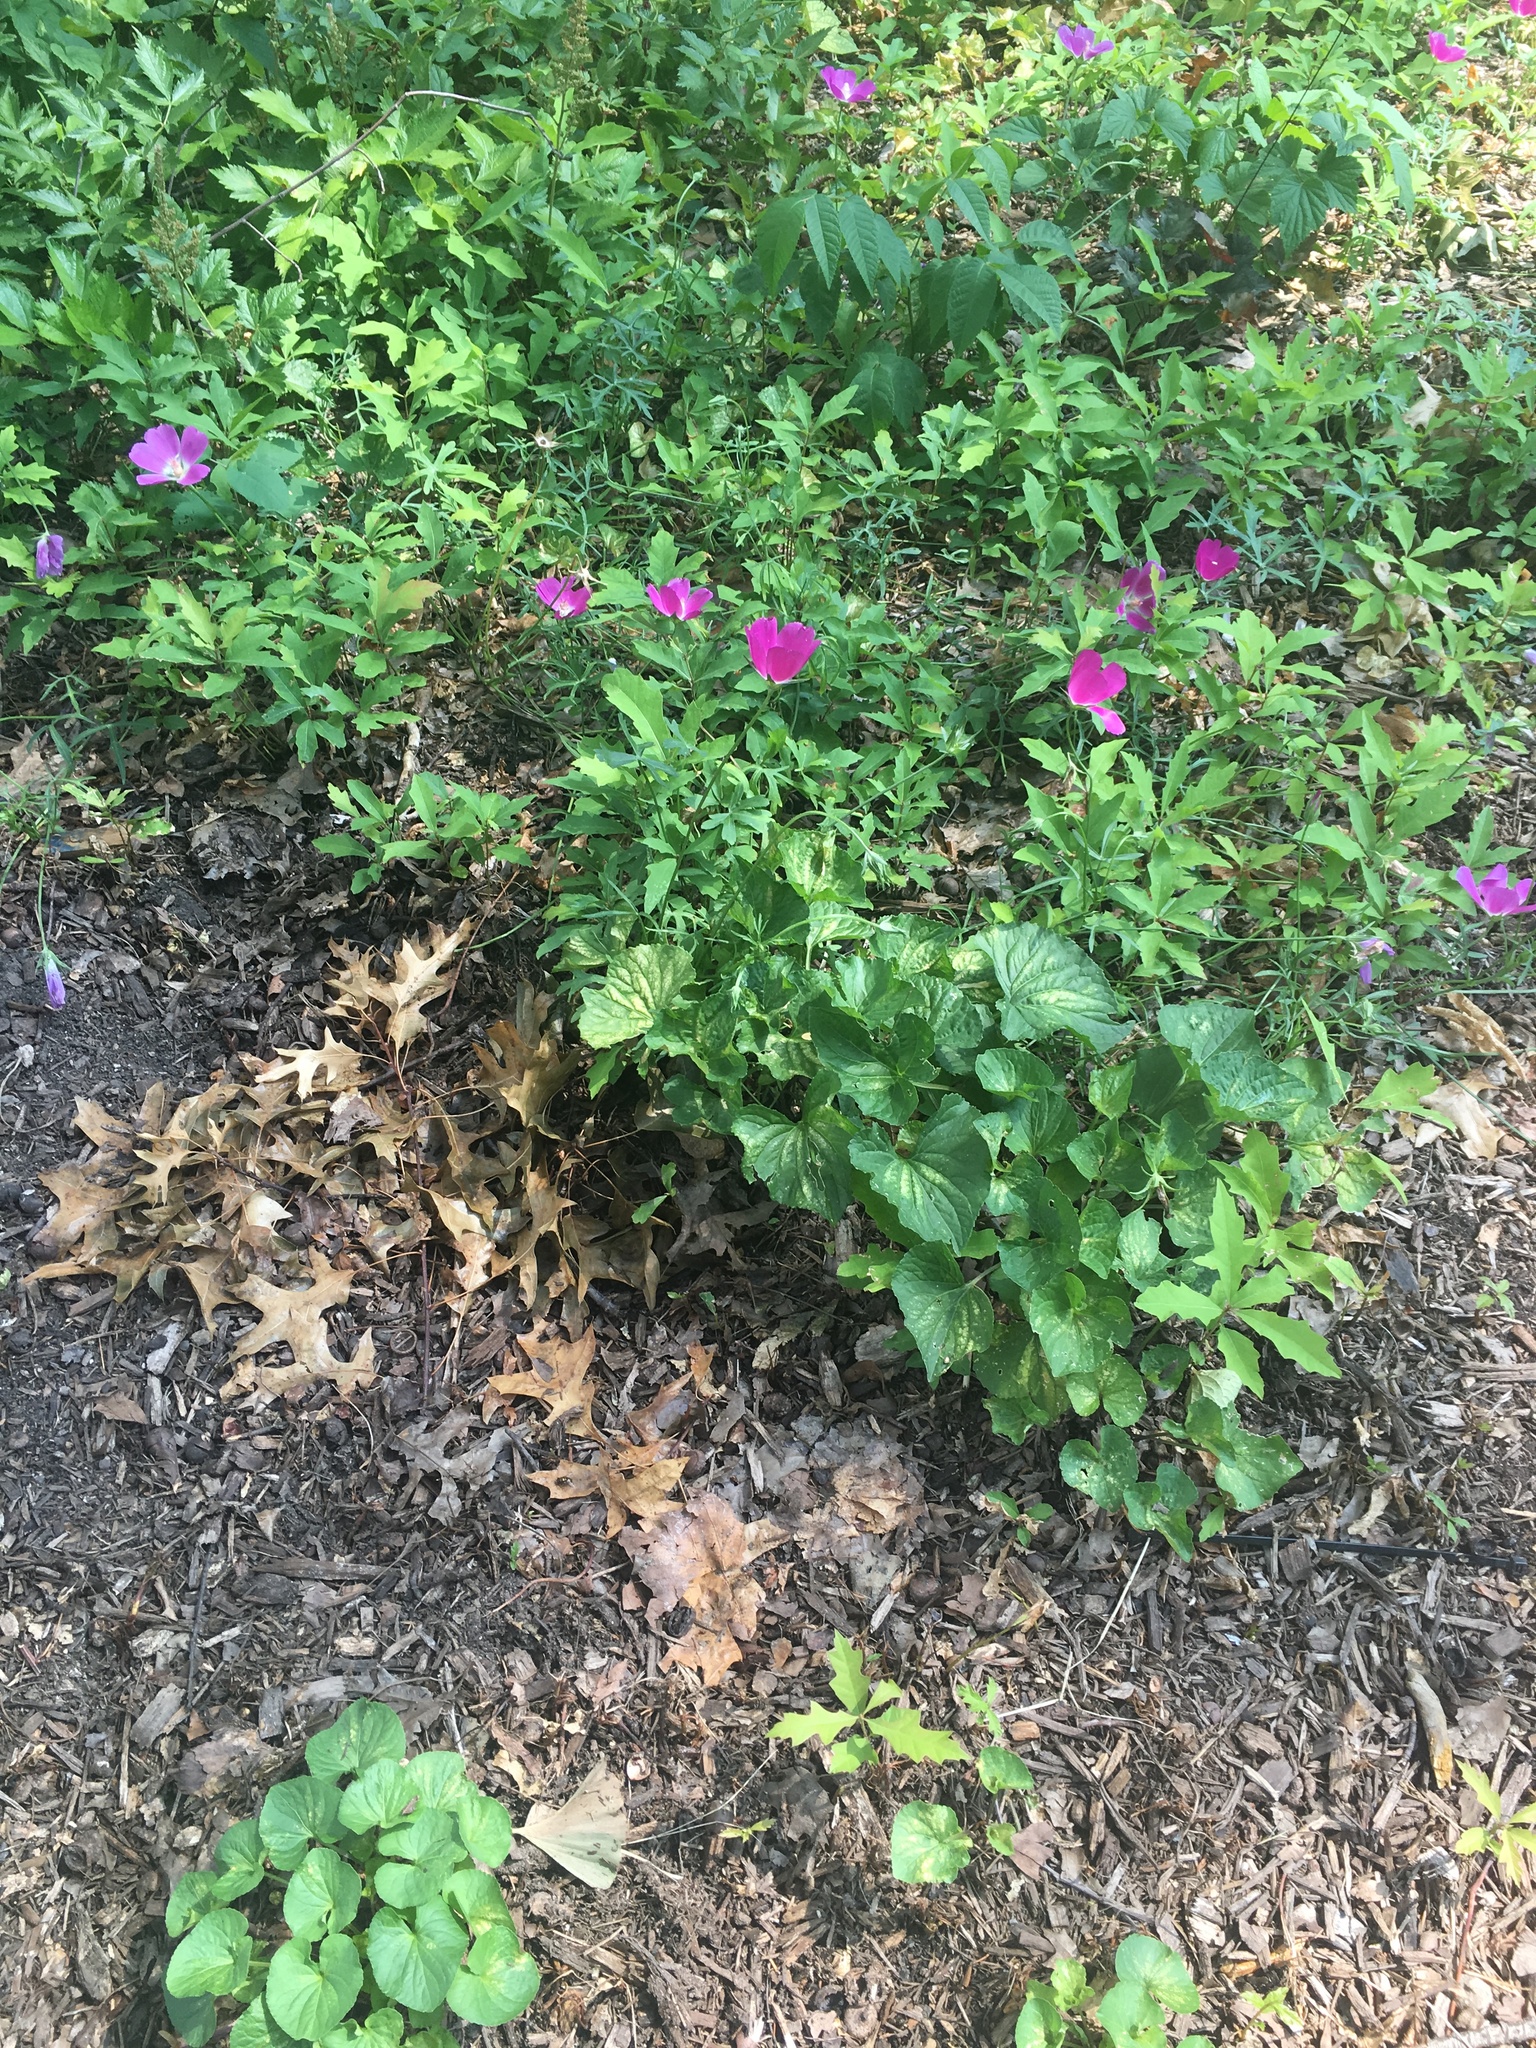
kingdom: Plantae
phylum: Tracheophyta
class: Magnoliopsida
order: Malvales
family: Malvaceae
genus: Callirhoe
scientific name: Callirhoe involucrata
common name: Purple poppy-mallow
